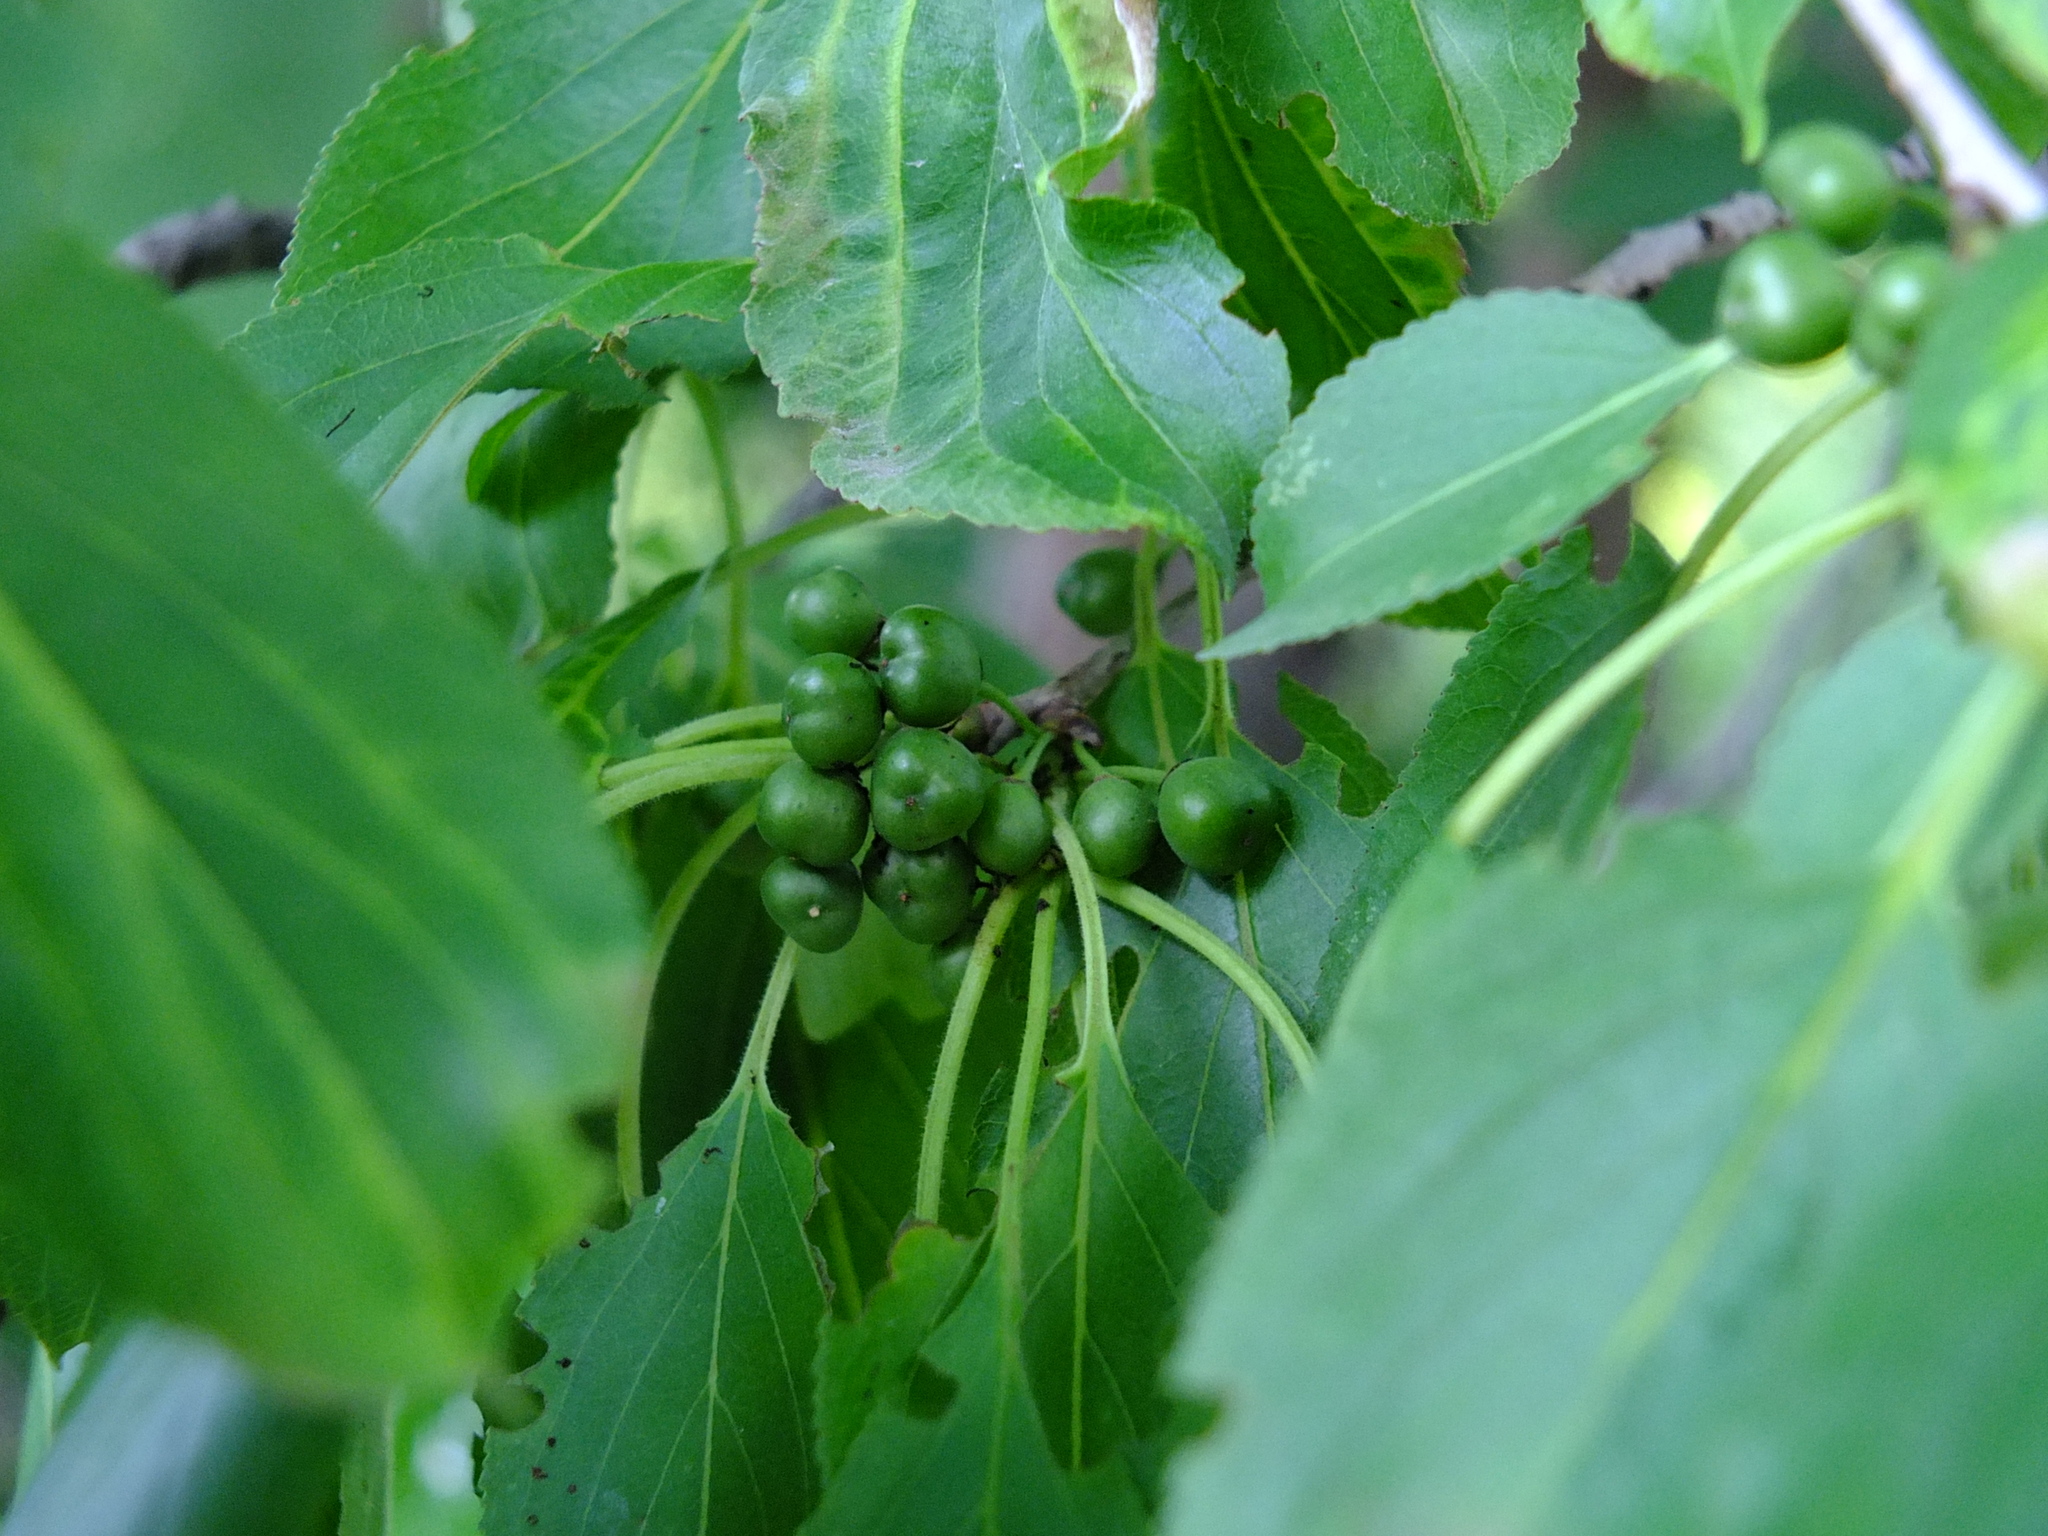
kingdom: Plantae
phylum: Tracheophyta
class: Magnoliopsida
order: Rosales
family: Rhamnaceae
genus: Rhamnus
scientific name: Rhamnus cathartica
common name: Common buckthorn
